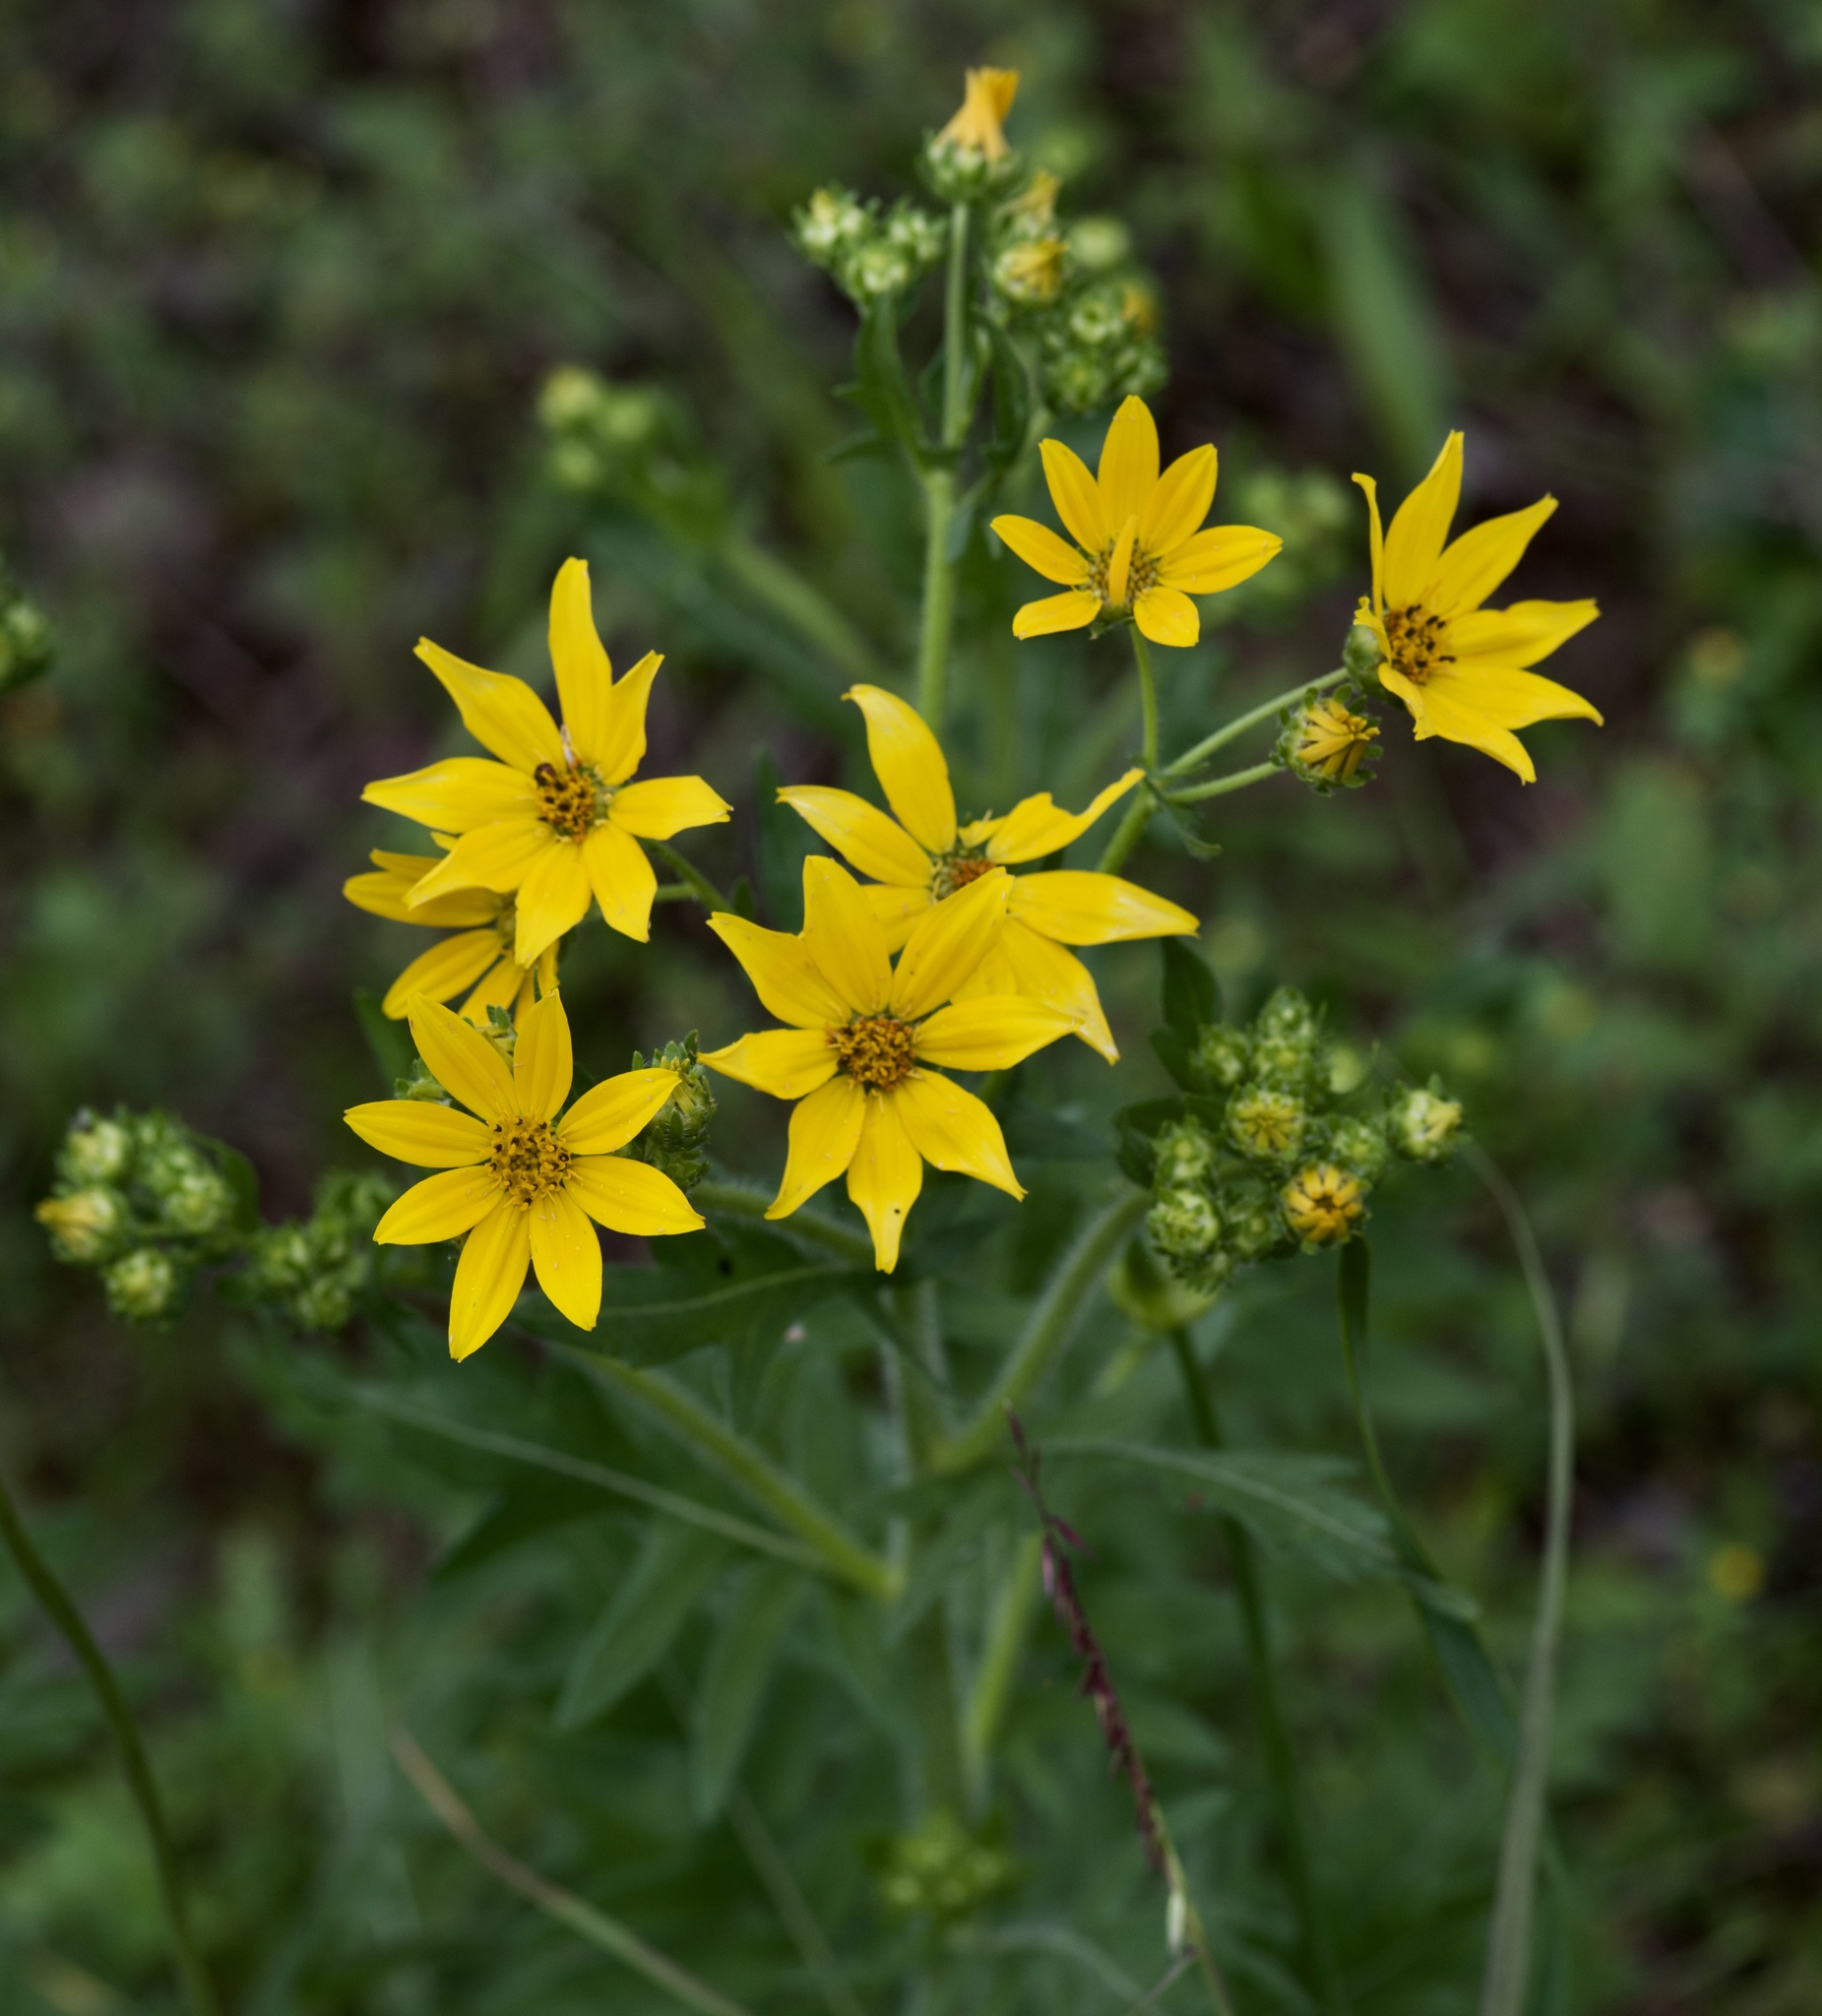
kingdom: Plantae
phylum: Tracheophyta
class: Magnoliopsida
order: Asterales
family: Asteraceae
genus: Engelmannia
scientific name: Engelmannia peristenia
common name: Engelmann's daisy
